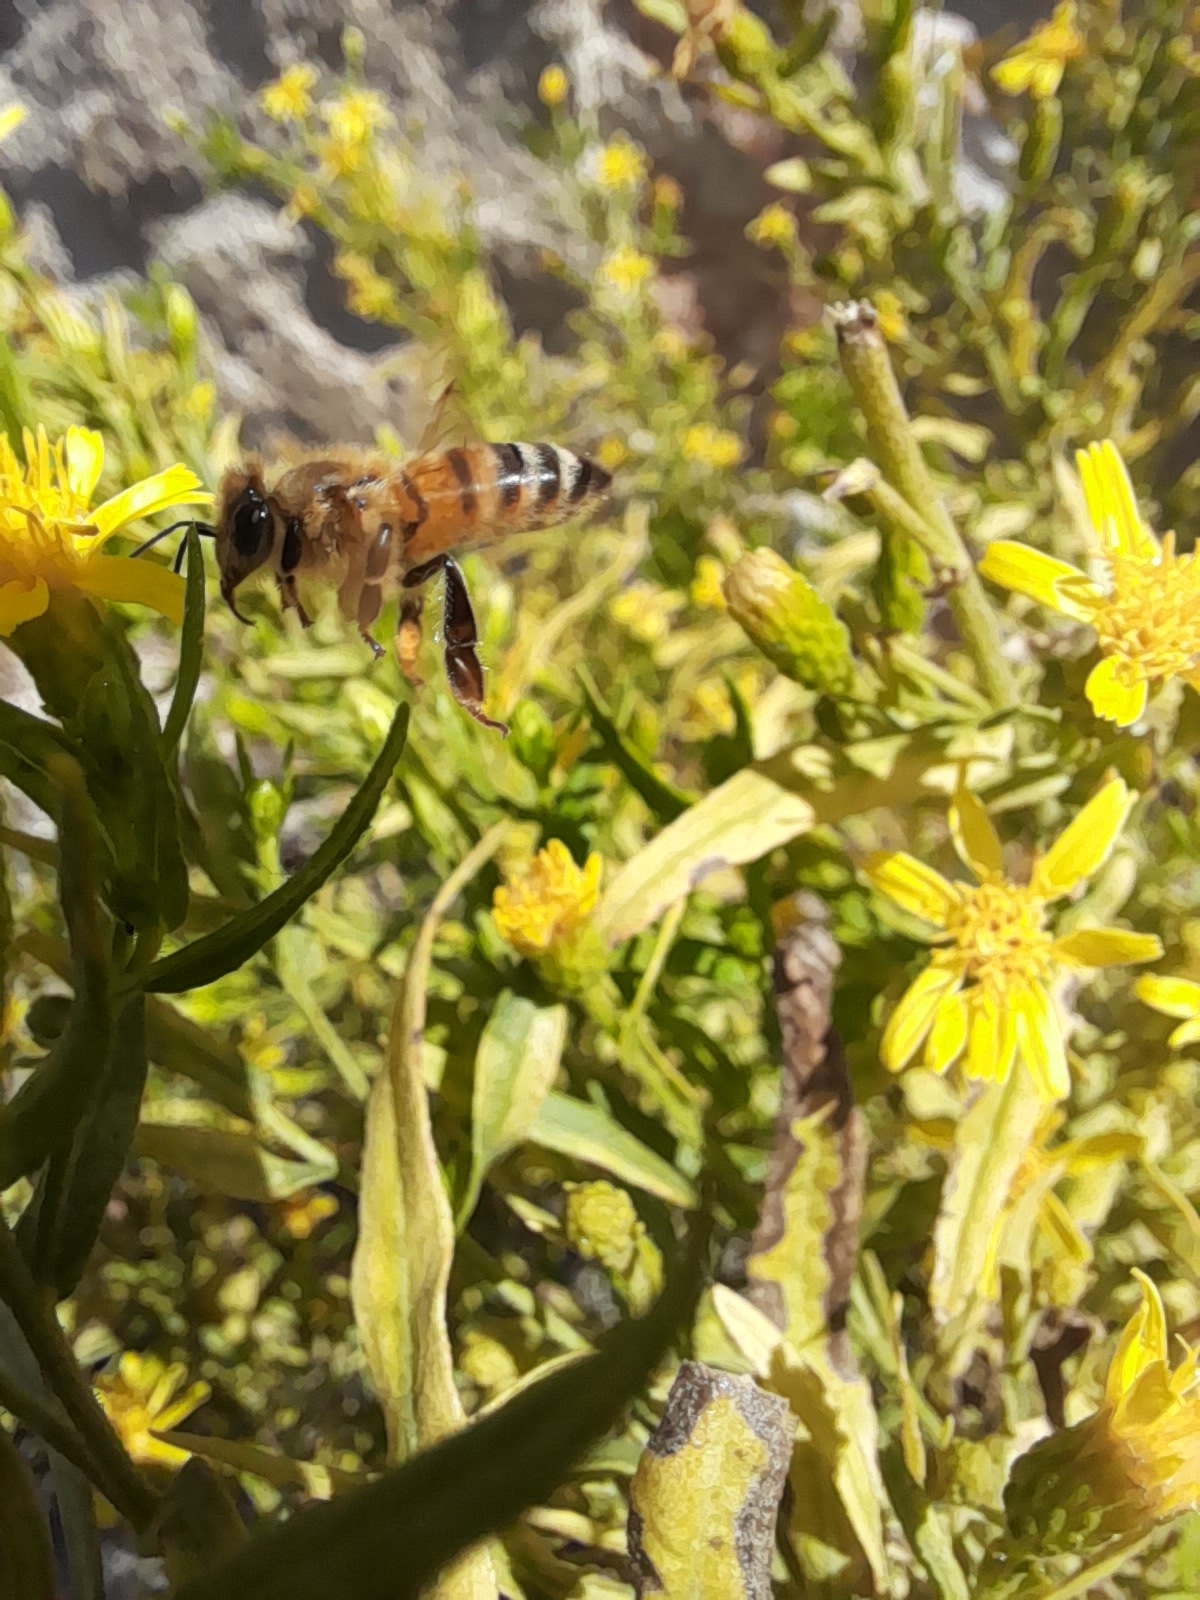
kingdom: Animalia
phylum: Arthropoda
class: Insecta
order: Hymenoptera
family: Apidae
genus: Apis
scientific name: Apis mellifera
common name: Honey bee
